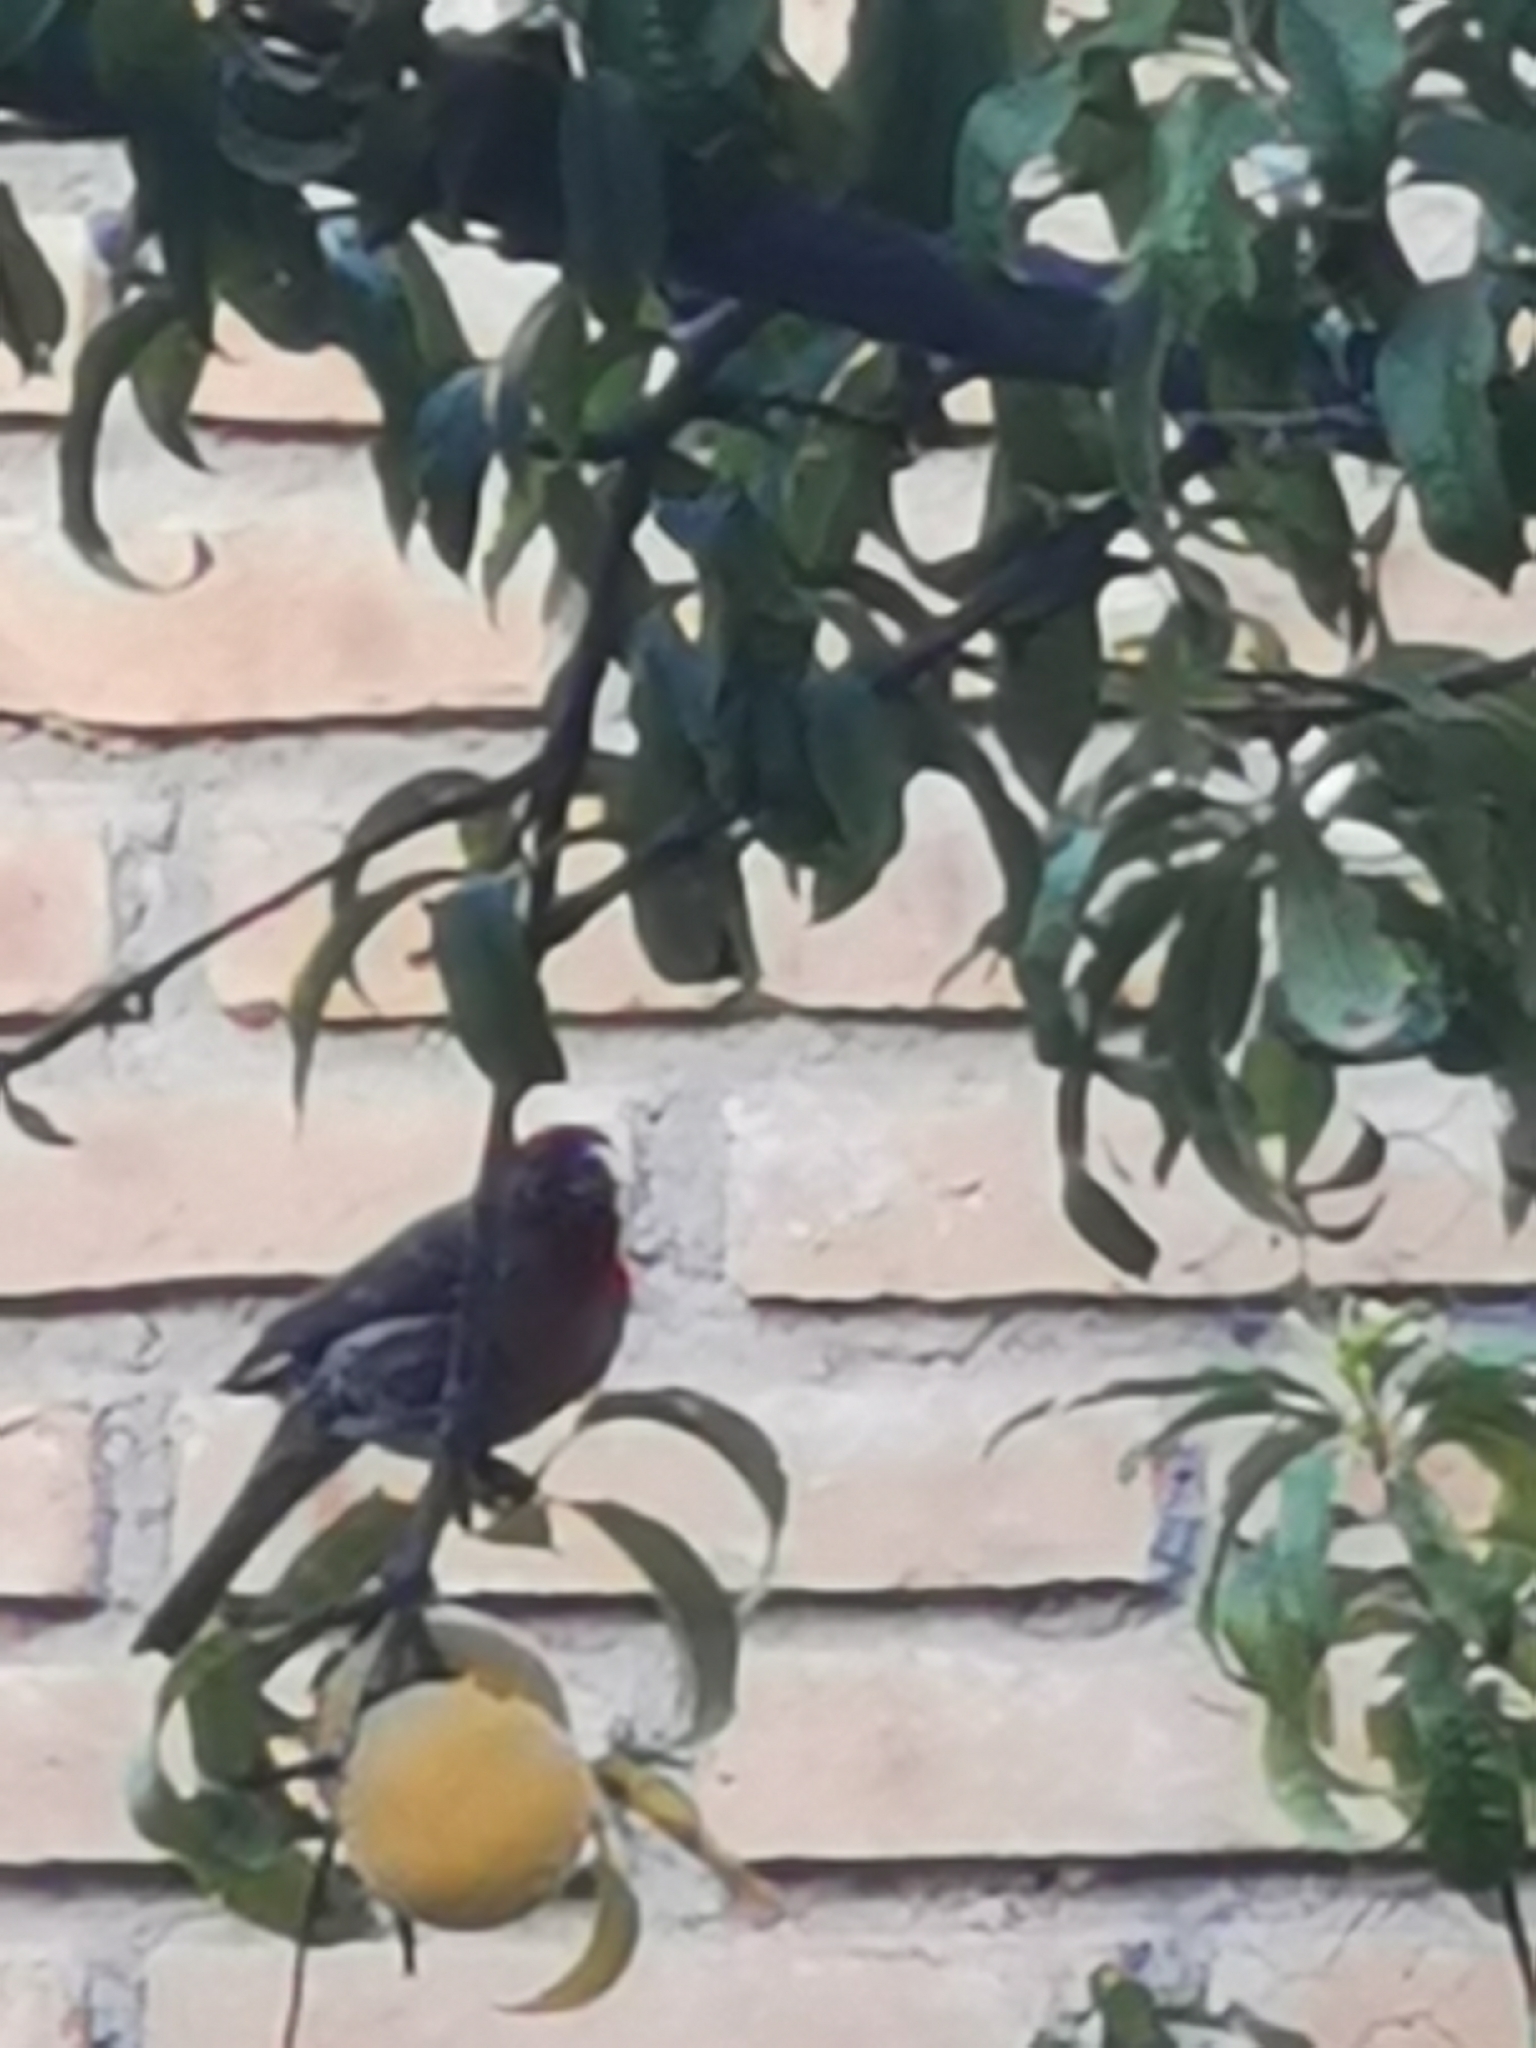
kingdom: Animalia
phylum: Chordata
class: Aves
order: Passeriformes
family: Fringillidae
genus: Haemorhous
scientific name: Haemorhous mexicanus
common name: House finch
